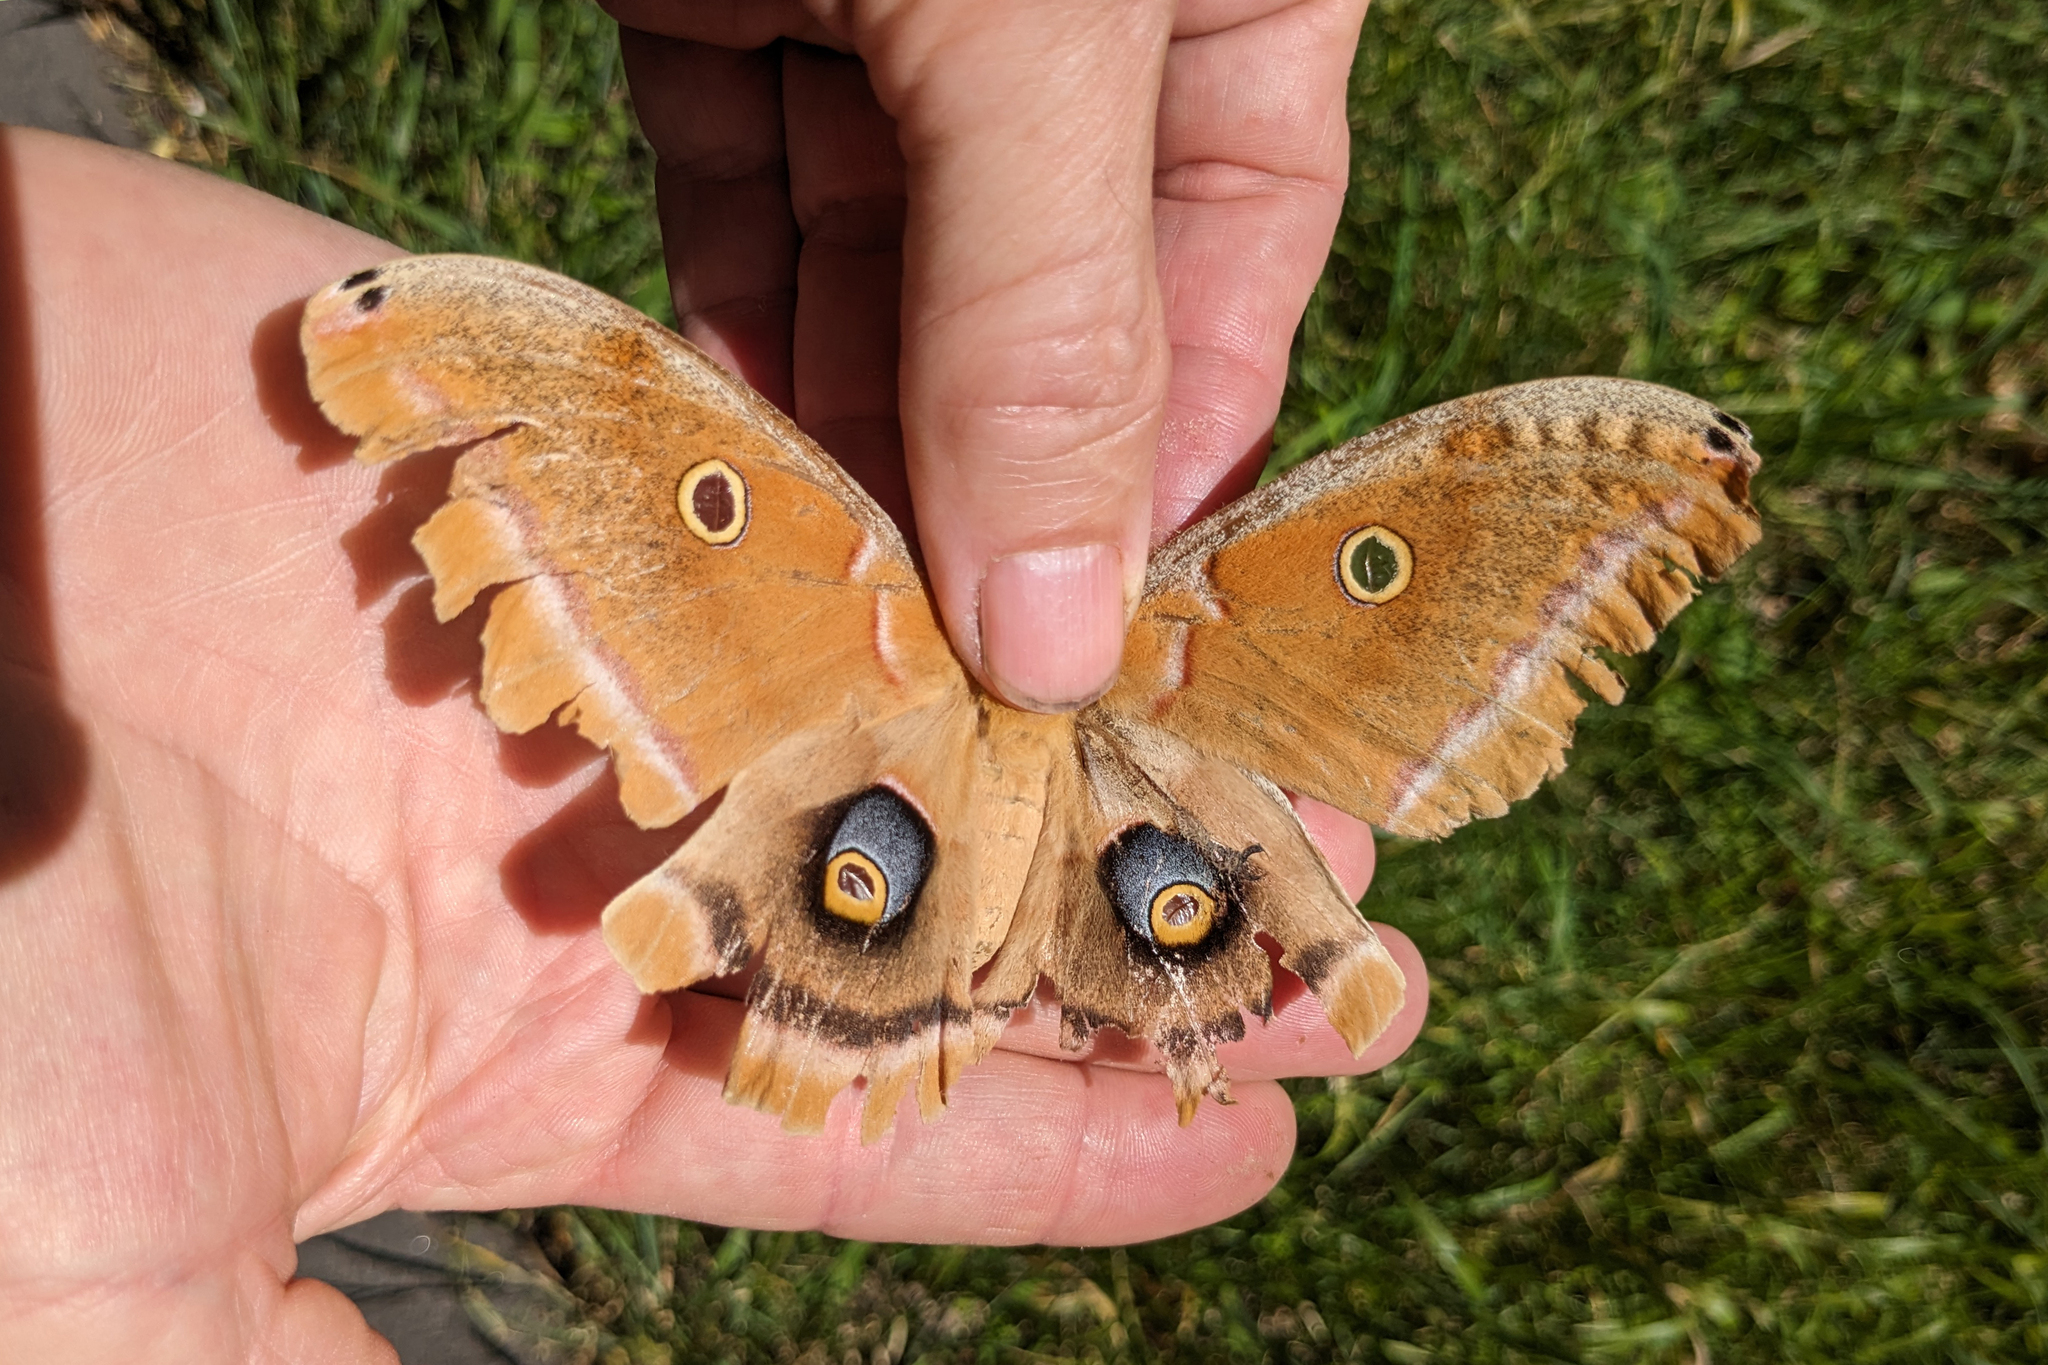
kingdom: Animalia
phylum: Arthropoda
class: Insecta
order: Lepidoptera
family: Saturniidae
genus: Antheraea
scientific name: Antheraea polyphemus
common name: Polyphemus moth
